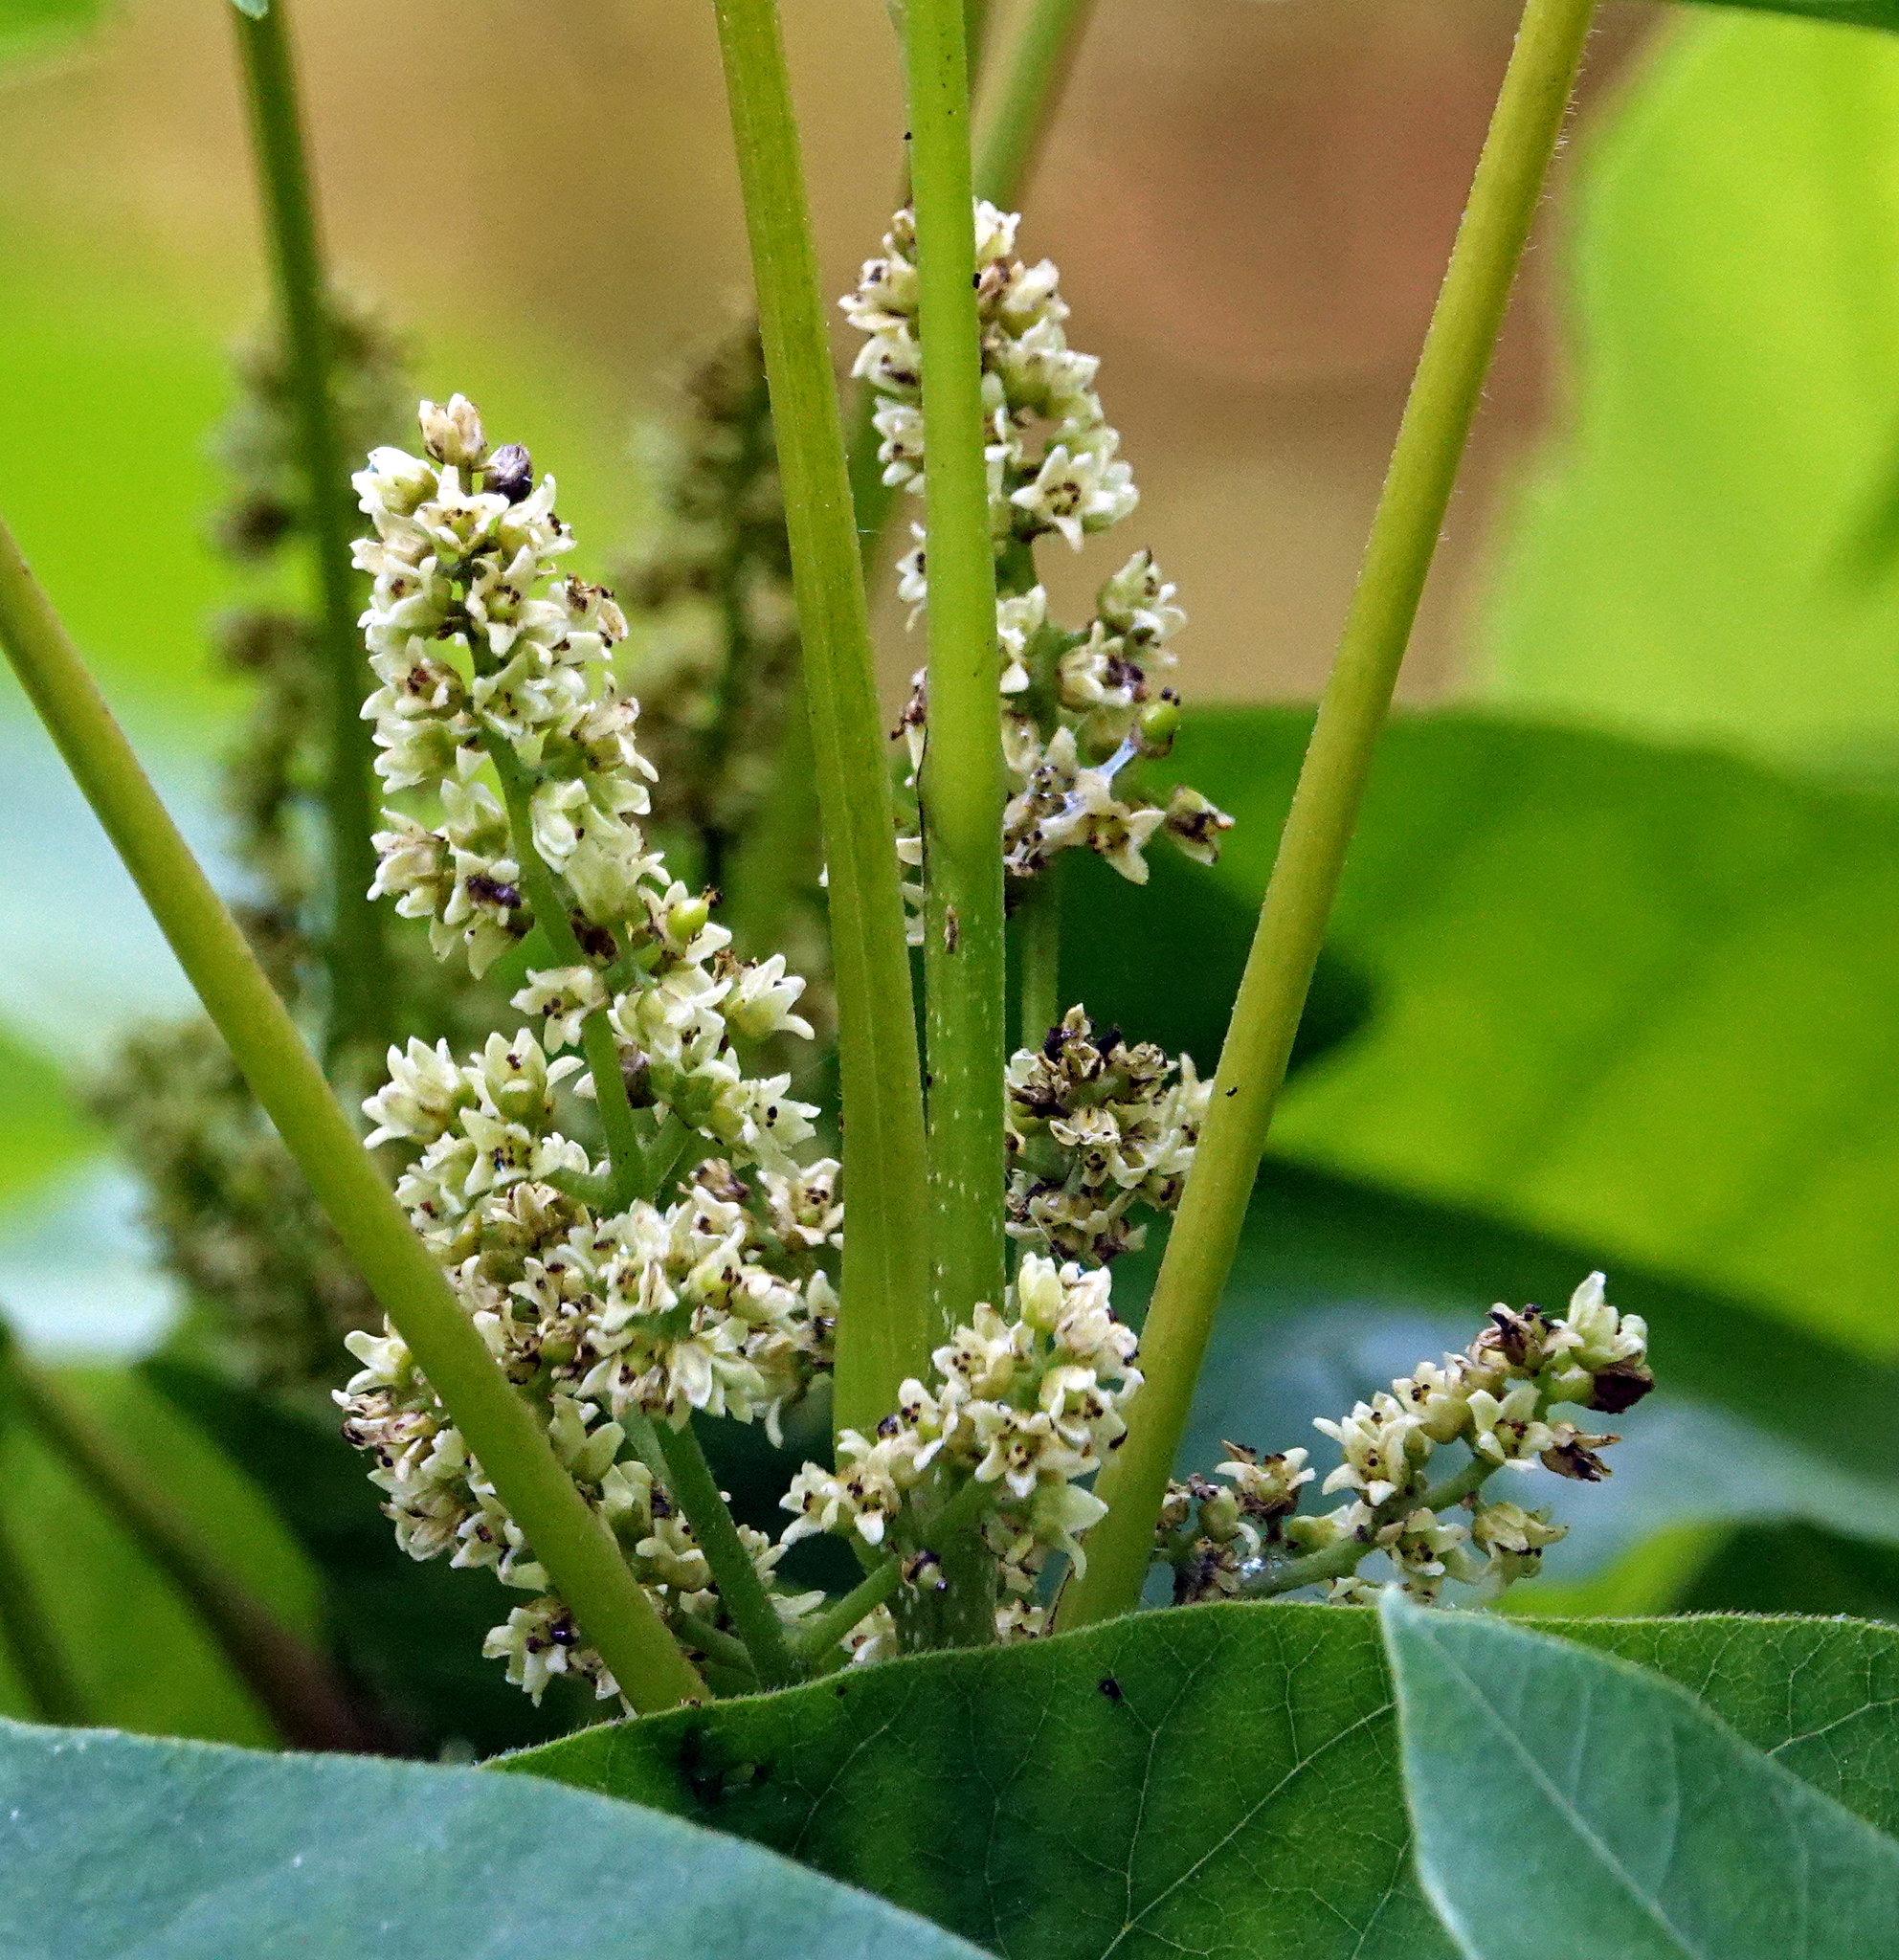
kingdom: Plantae
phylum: Tracheophyta
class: Magnoliopsida
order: Sapindales
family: Anacardiaceae
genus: Toxicodendron
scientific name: Toxicodendron rydbergii
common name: Rydberg's poison-ivy
